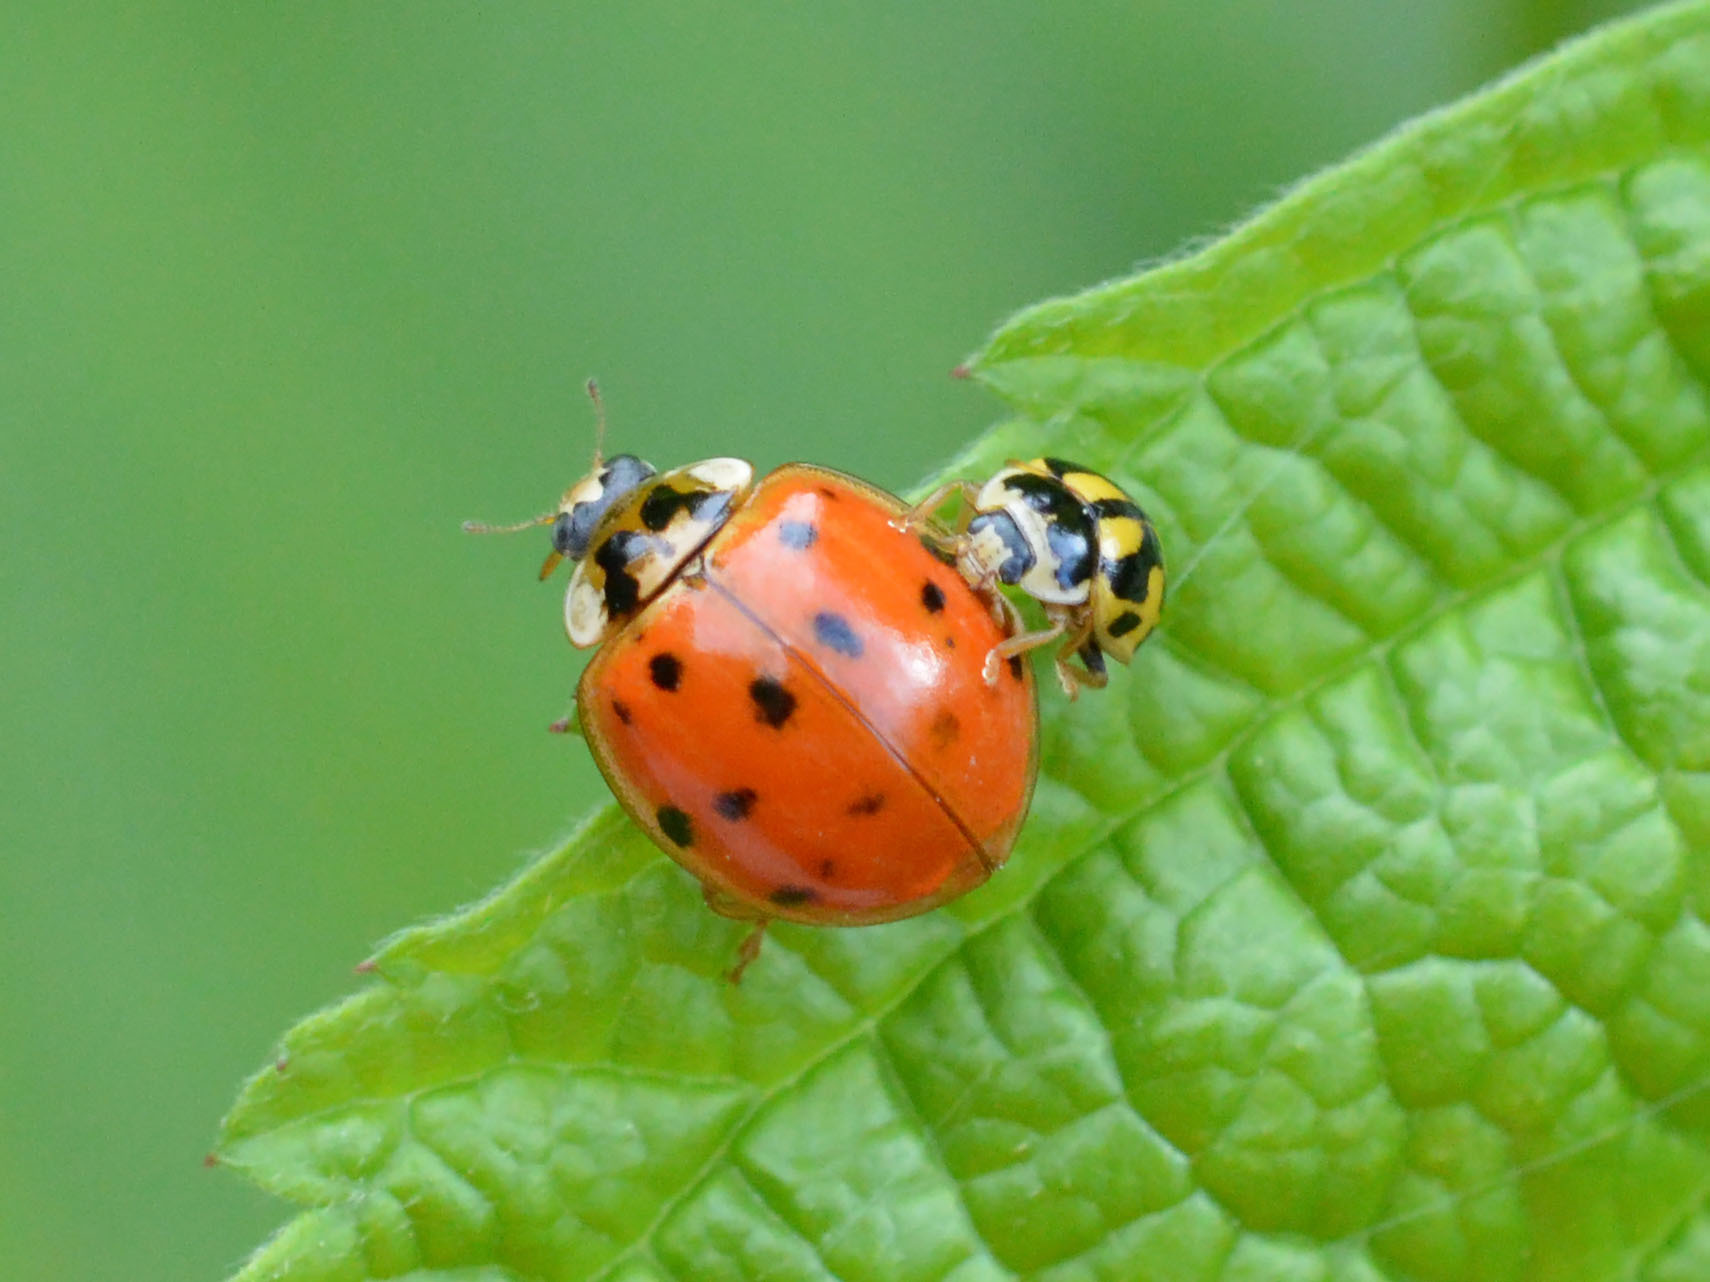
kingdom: Animalia
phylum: Arthropoda
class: Insecta
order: Coleoptera
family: Coccinellidae
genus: Propylaea
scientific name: Propylaea quatuordecimpunctata
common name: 14-spotted ladybird beetle
